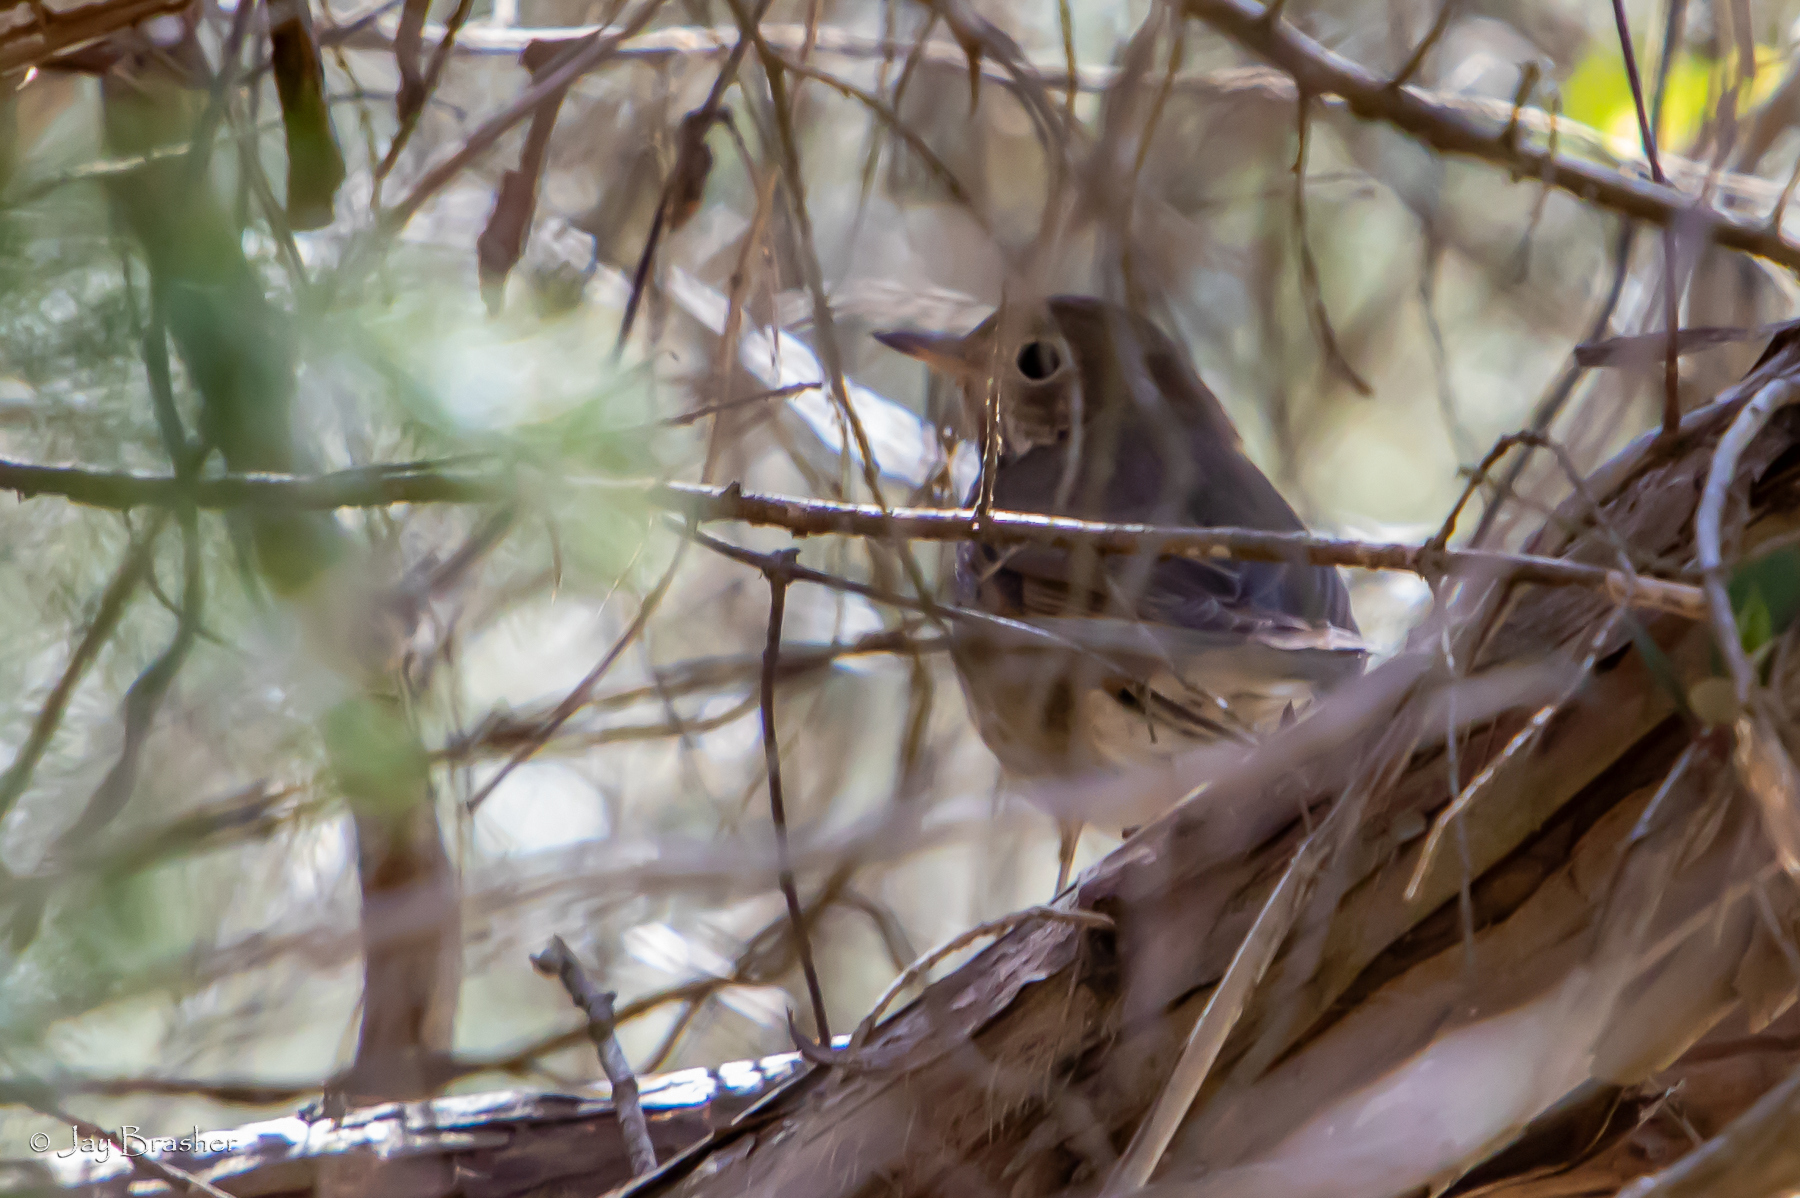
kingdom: Animalia
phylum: Chordata
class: Aves
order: Passeriformes
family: Turdidae
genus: Catharus
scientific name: Catharus guttatus
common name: Hermit thrush
